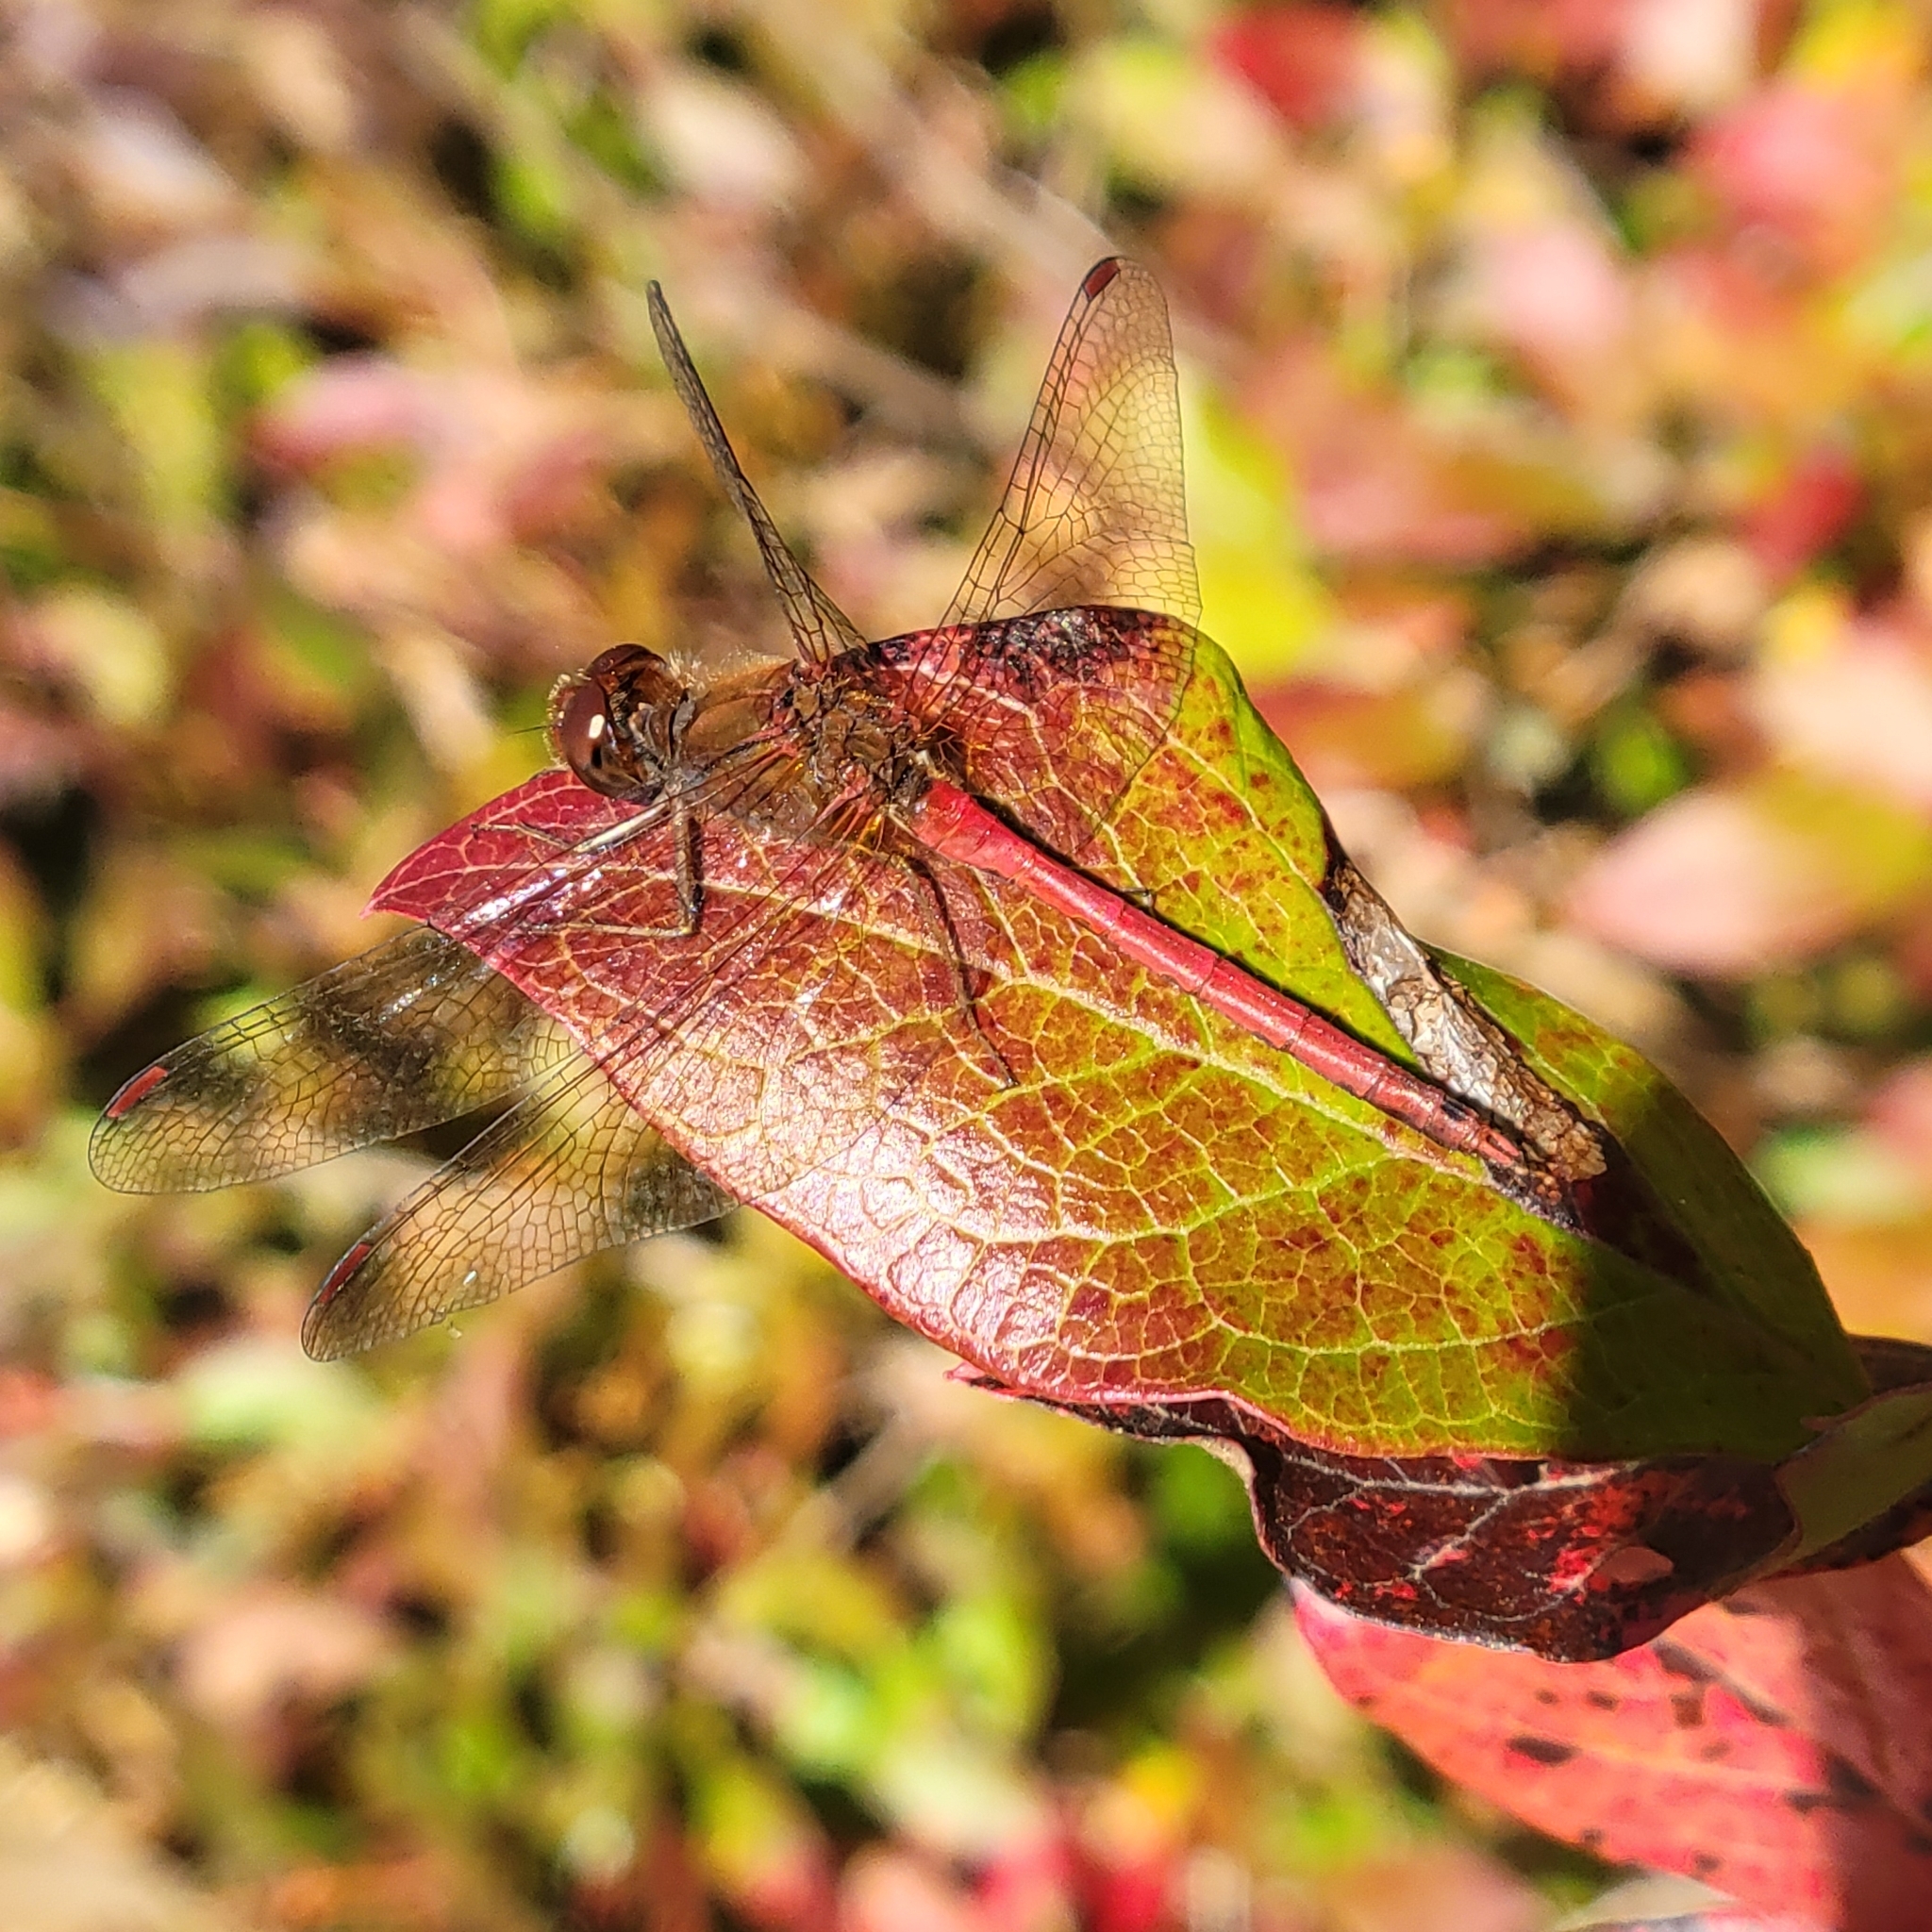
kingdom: Animalia
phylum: Arthropoda
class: Insecta
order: Odonata
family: Libellulidae
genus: Sympetrum
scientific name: Sympetrum vicinum
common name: Autumn meadowhawk
